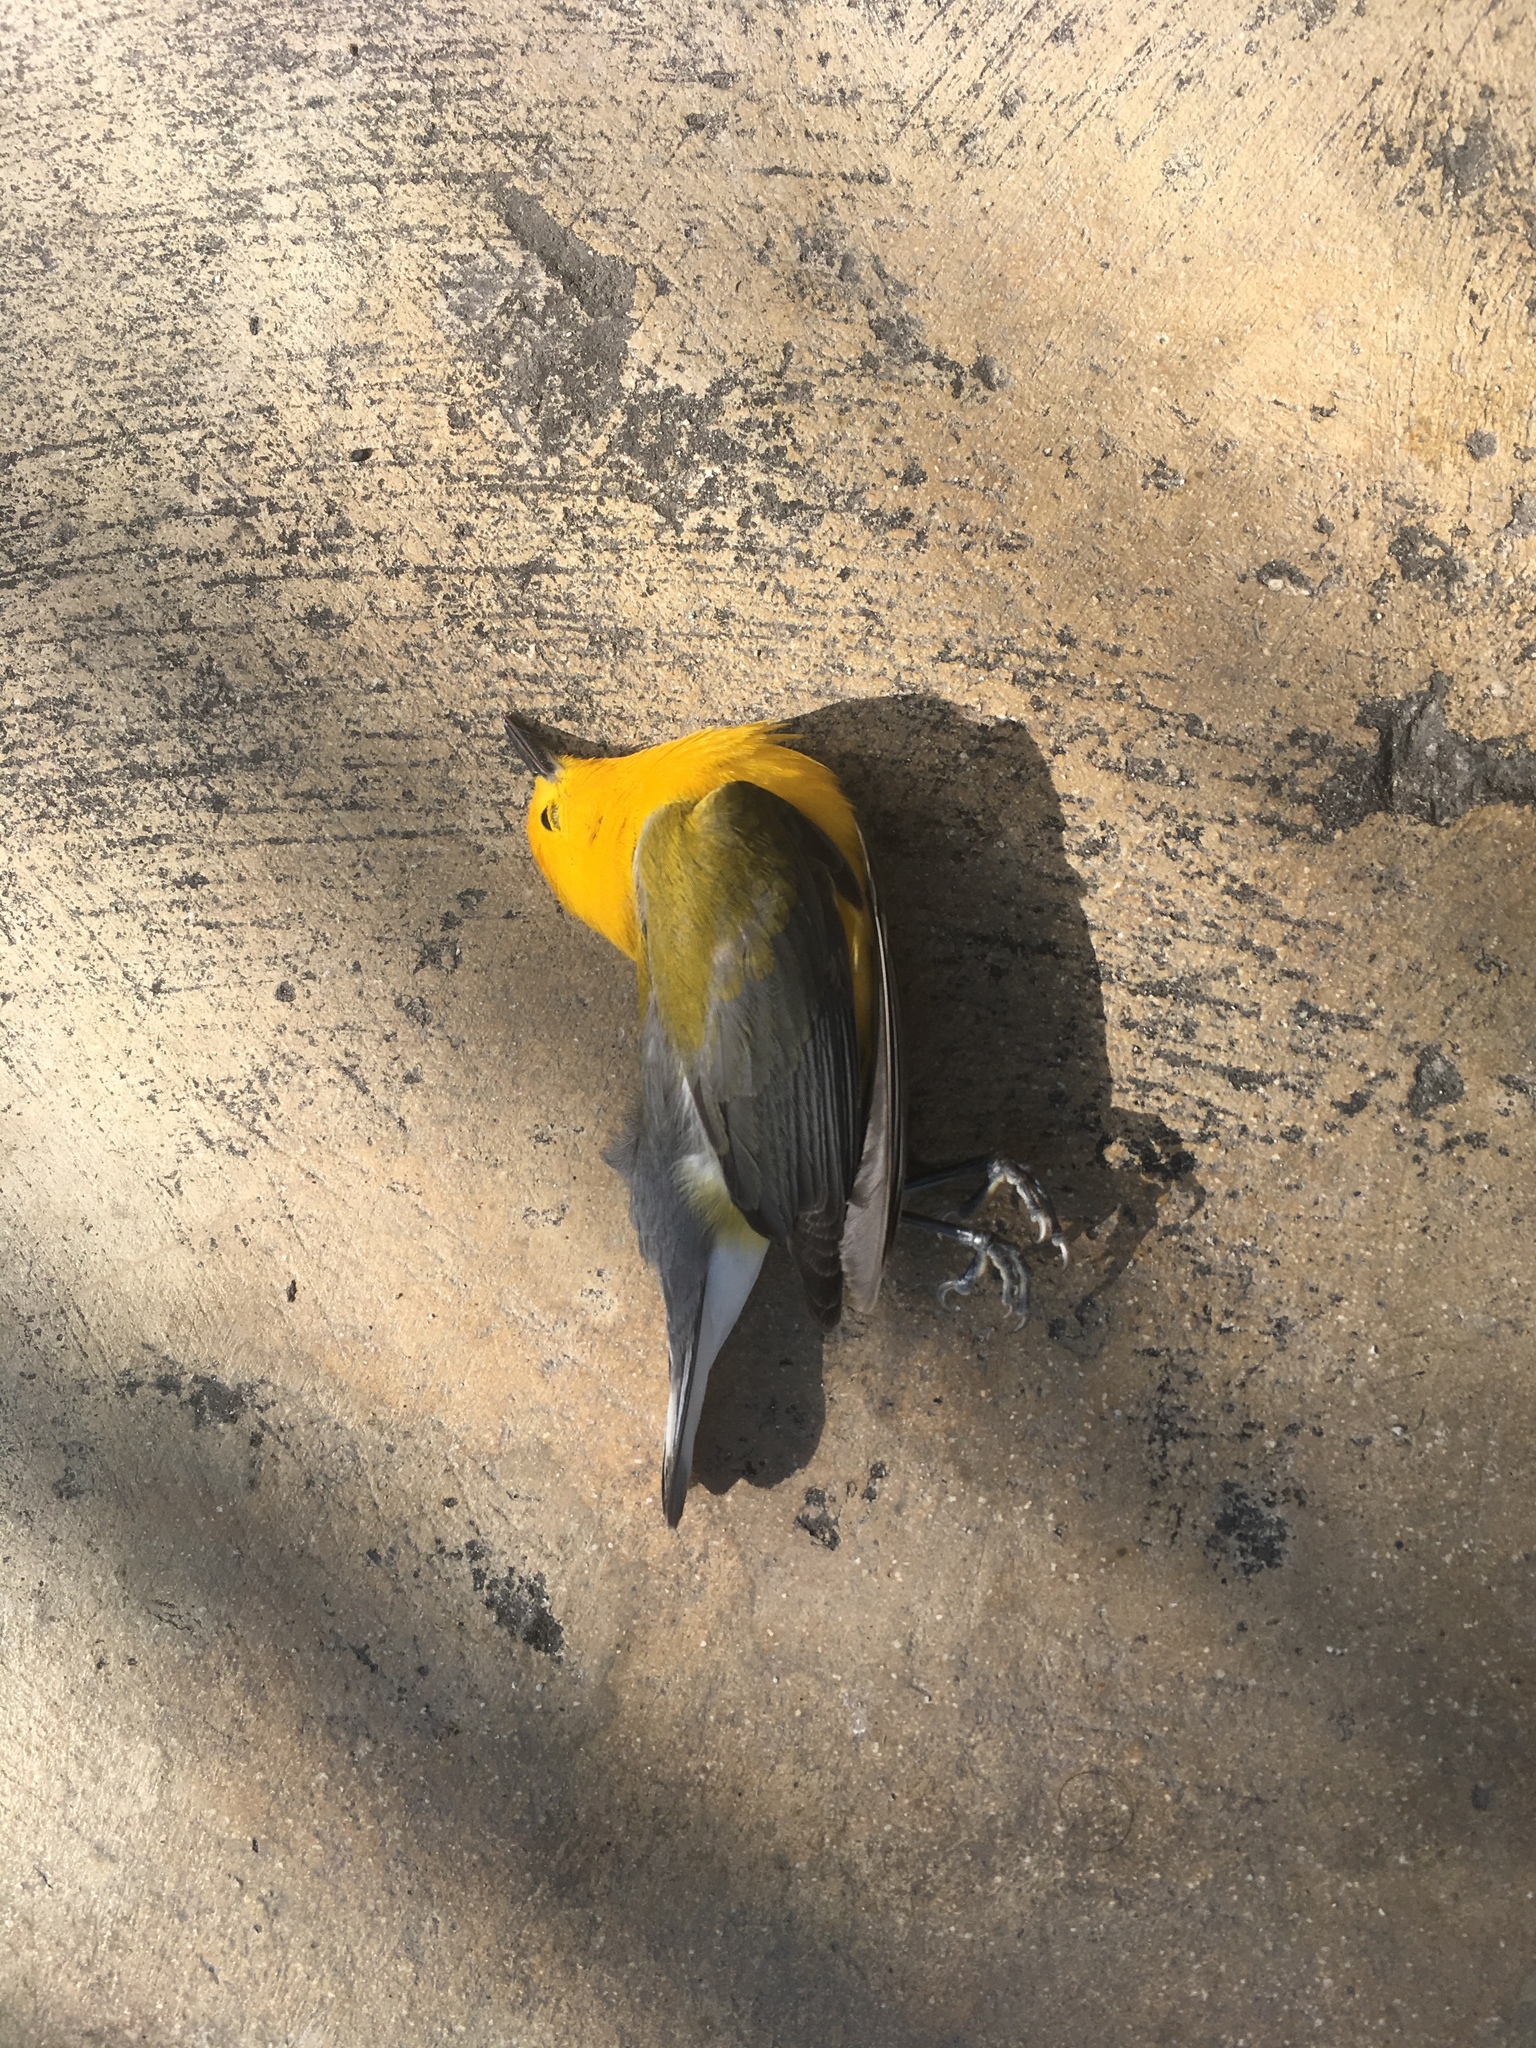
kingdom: Animalia
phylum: Chordata
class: Aves
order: Passeriformes
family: Parulidae
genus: Protonotaria
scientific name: Protonotaria citrea
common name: Prothonotary warbler
